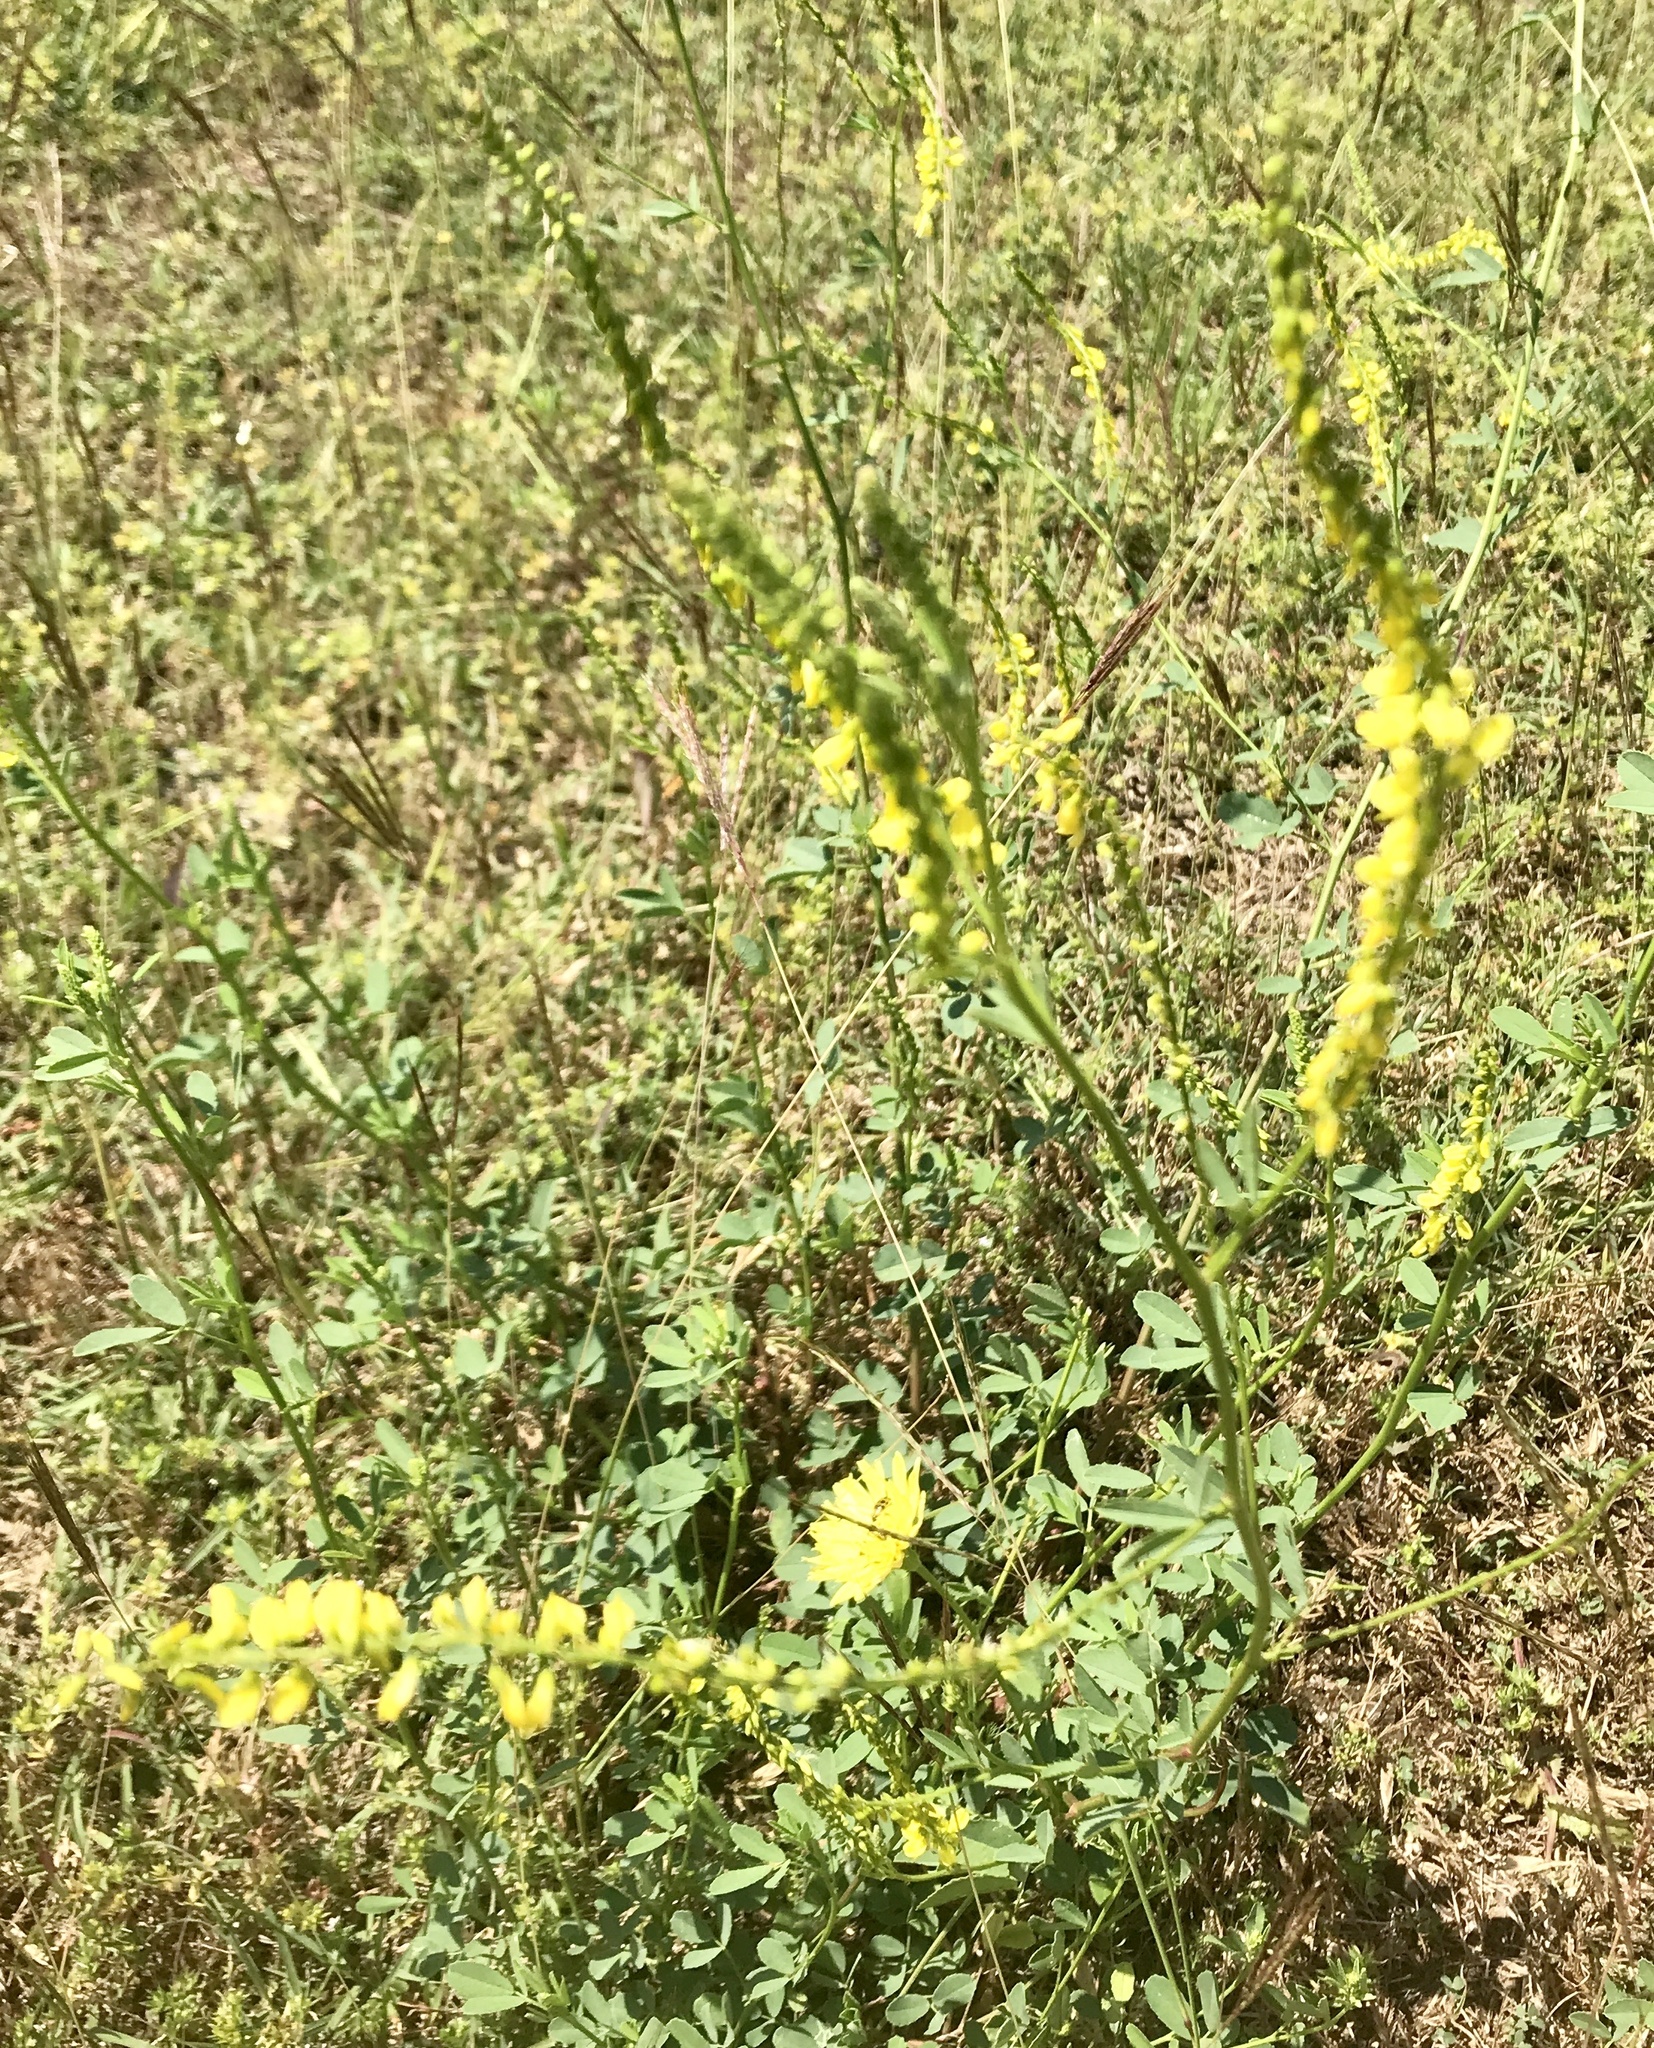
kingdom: Plantae
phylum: Tracheophyta
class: Magnoliopsida
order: Fabales
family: Fabaceae
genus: Melilotus
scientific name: Melilotus officinalis
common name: Sweetclover
